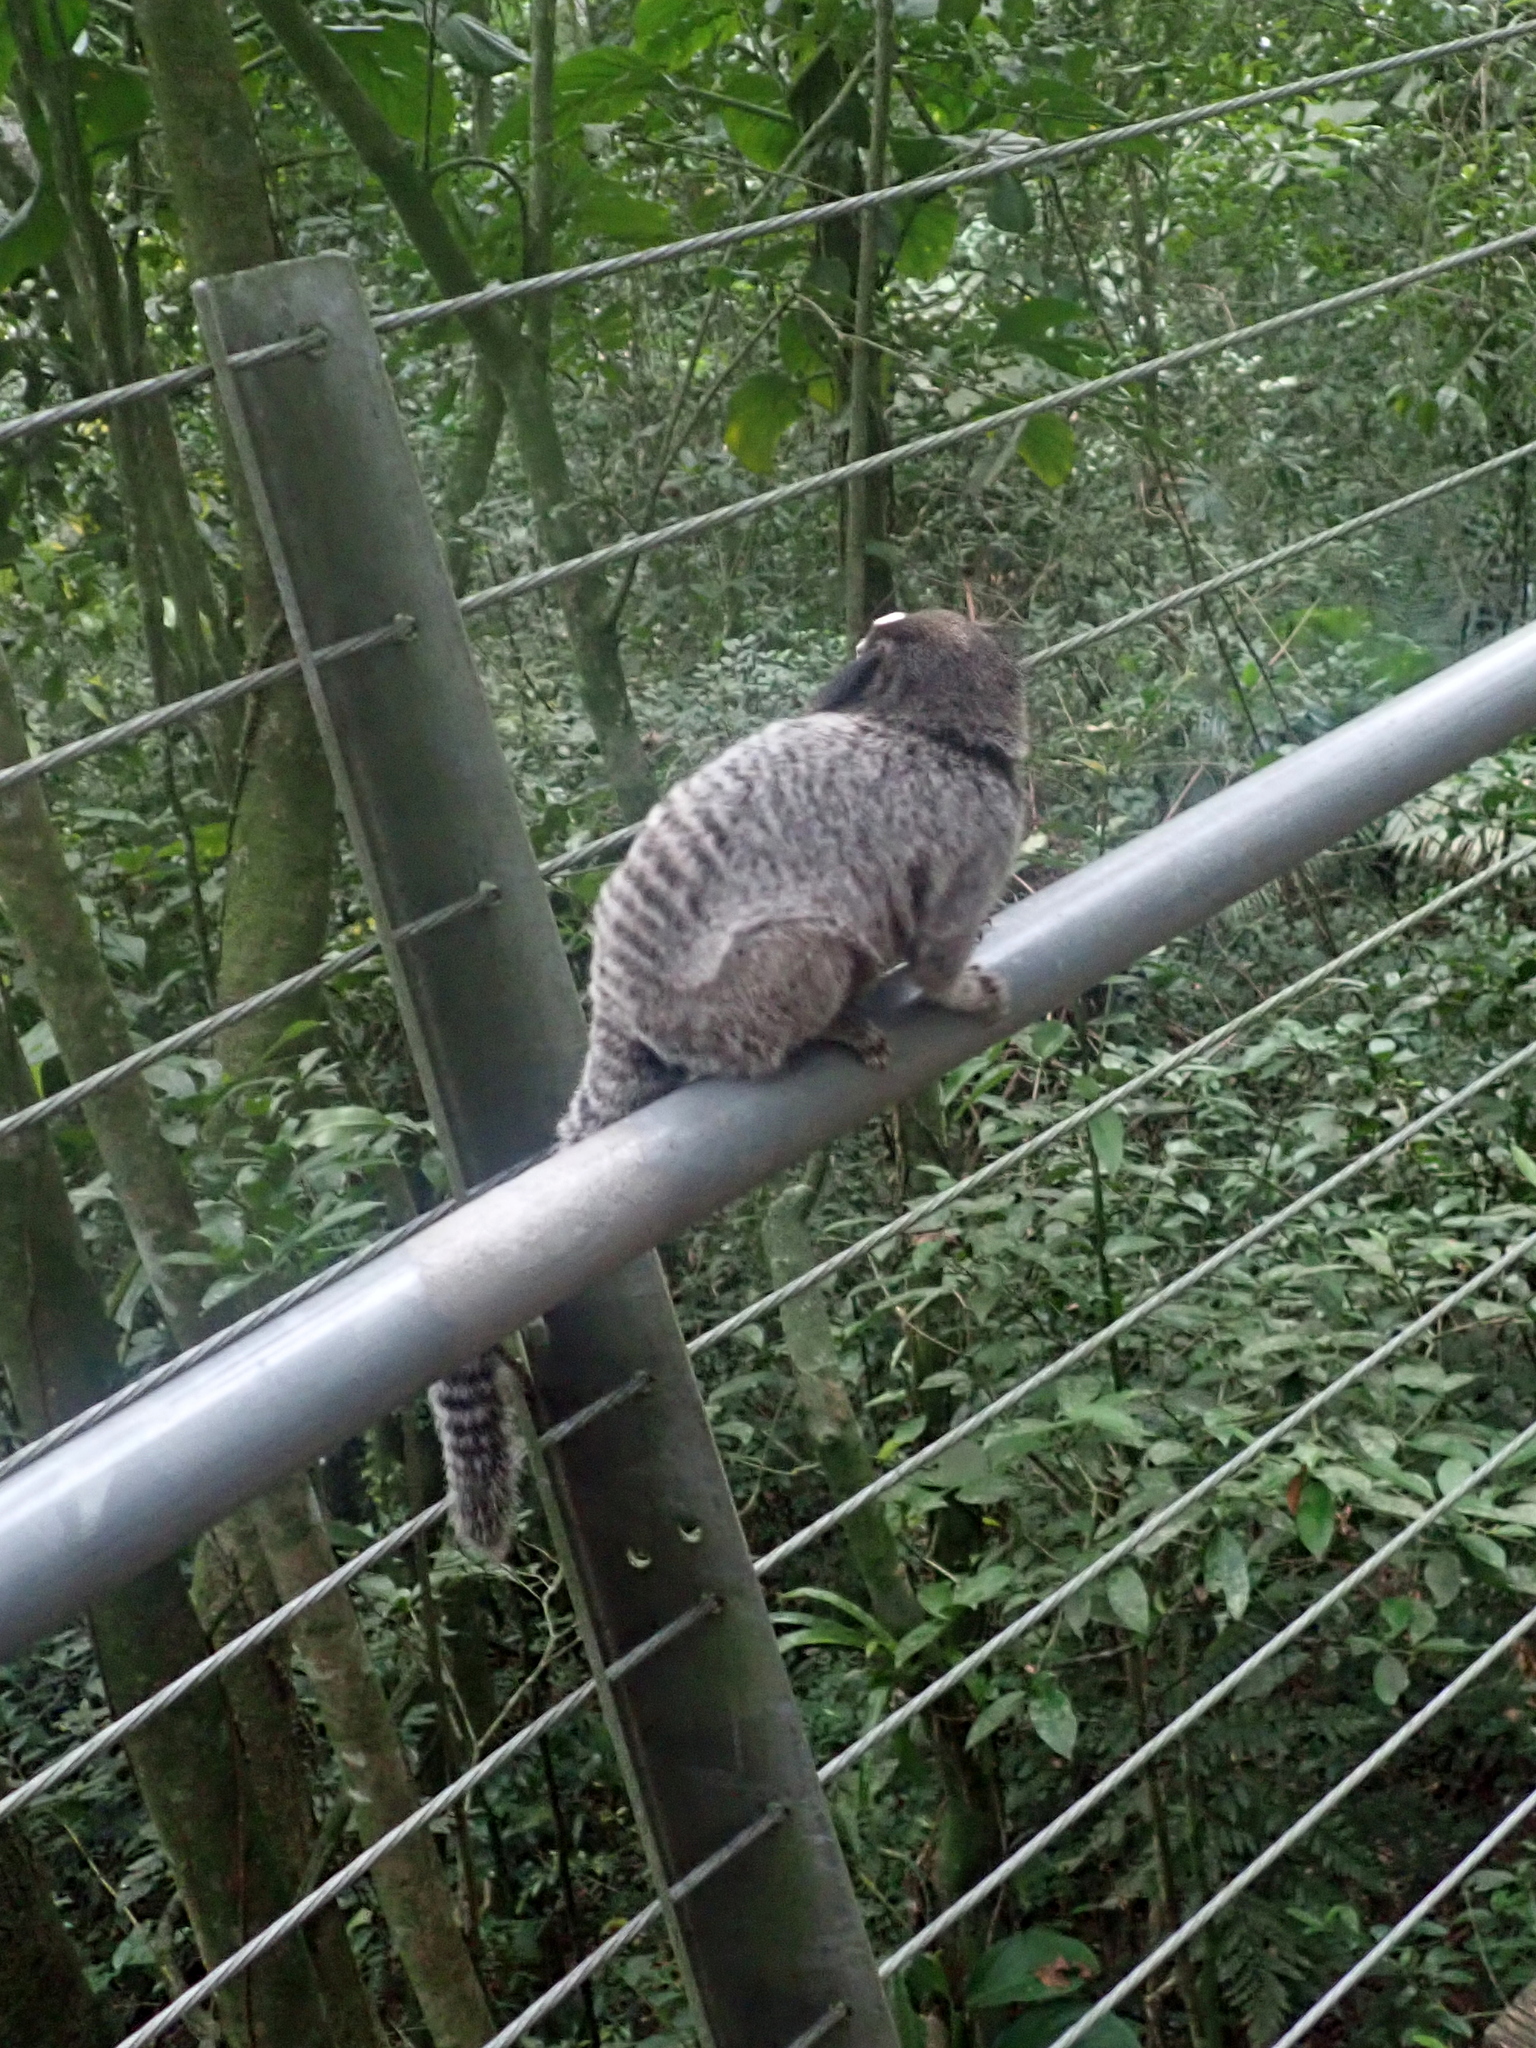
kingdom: Animalia
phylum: Chordata
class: Mammalia
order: Primates
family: Callitrichidae
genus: Callithrix
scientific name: Callithrix penicillata
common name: Black-tufted marmoset
